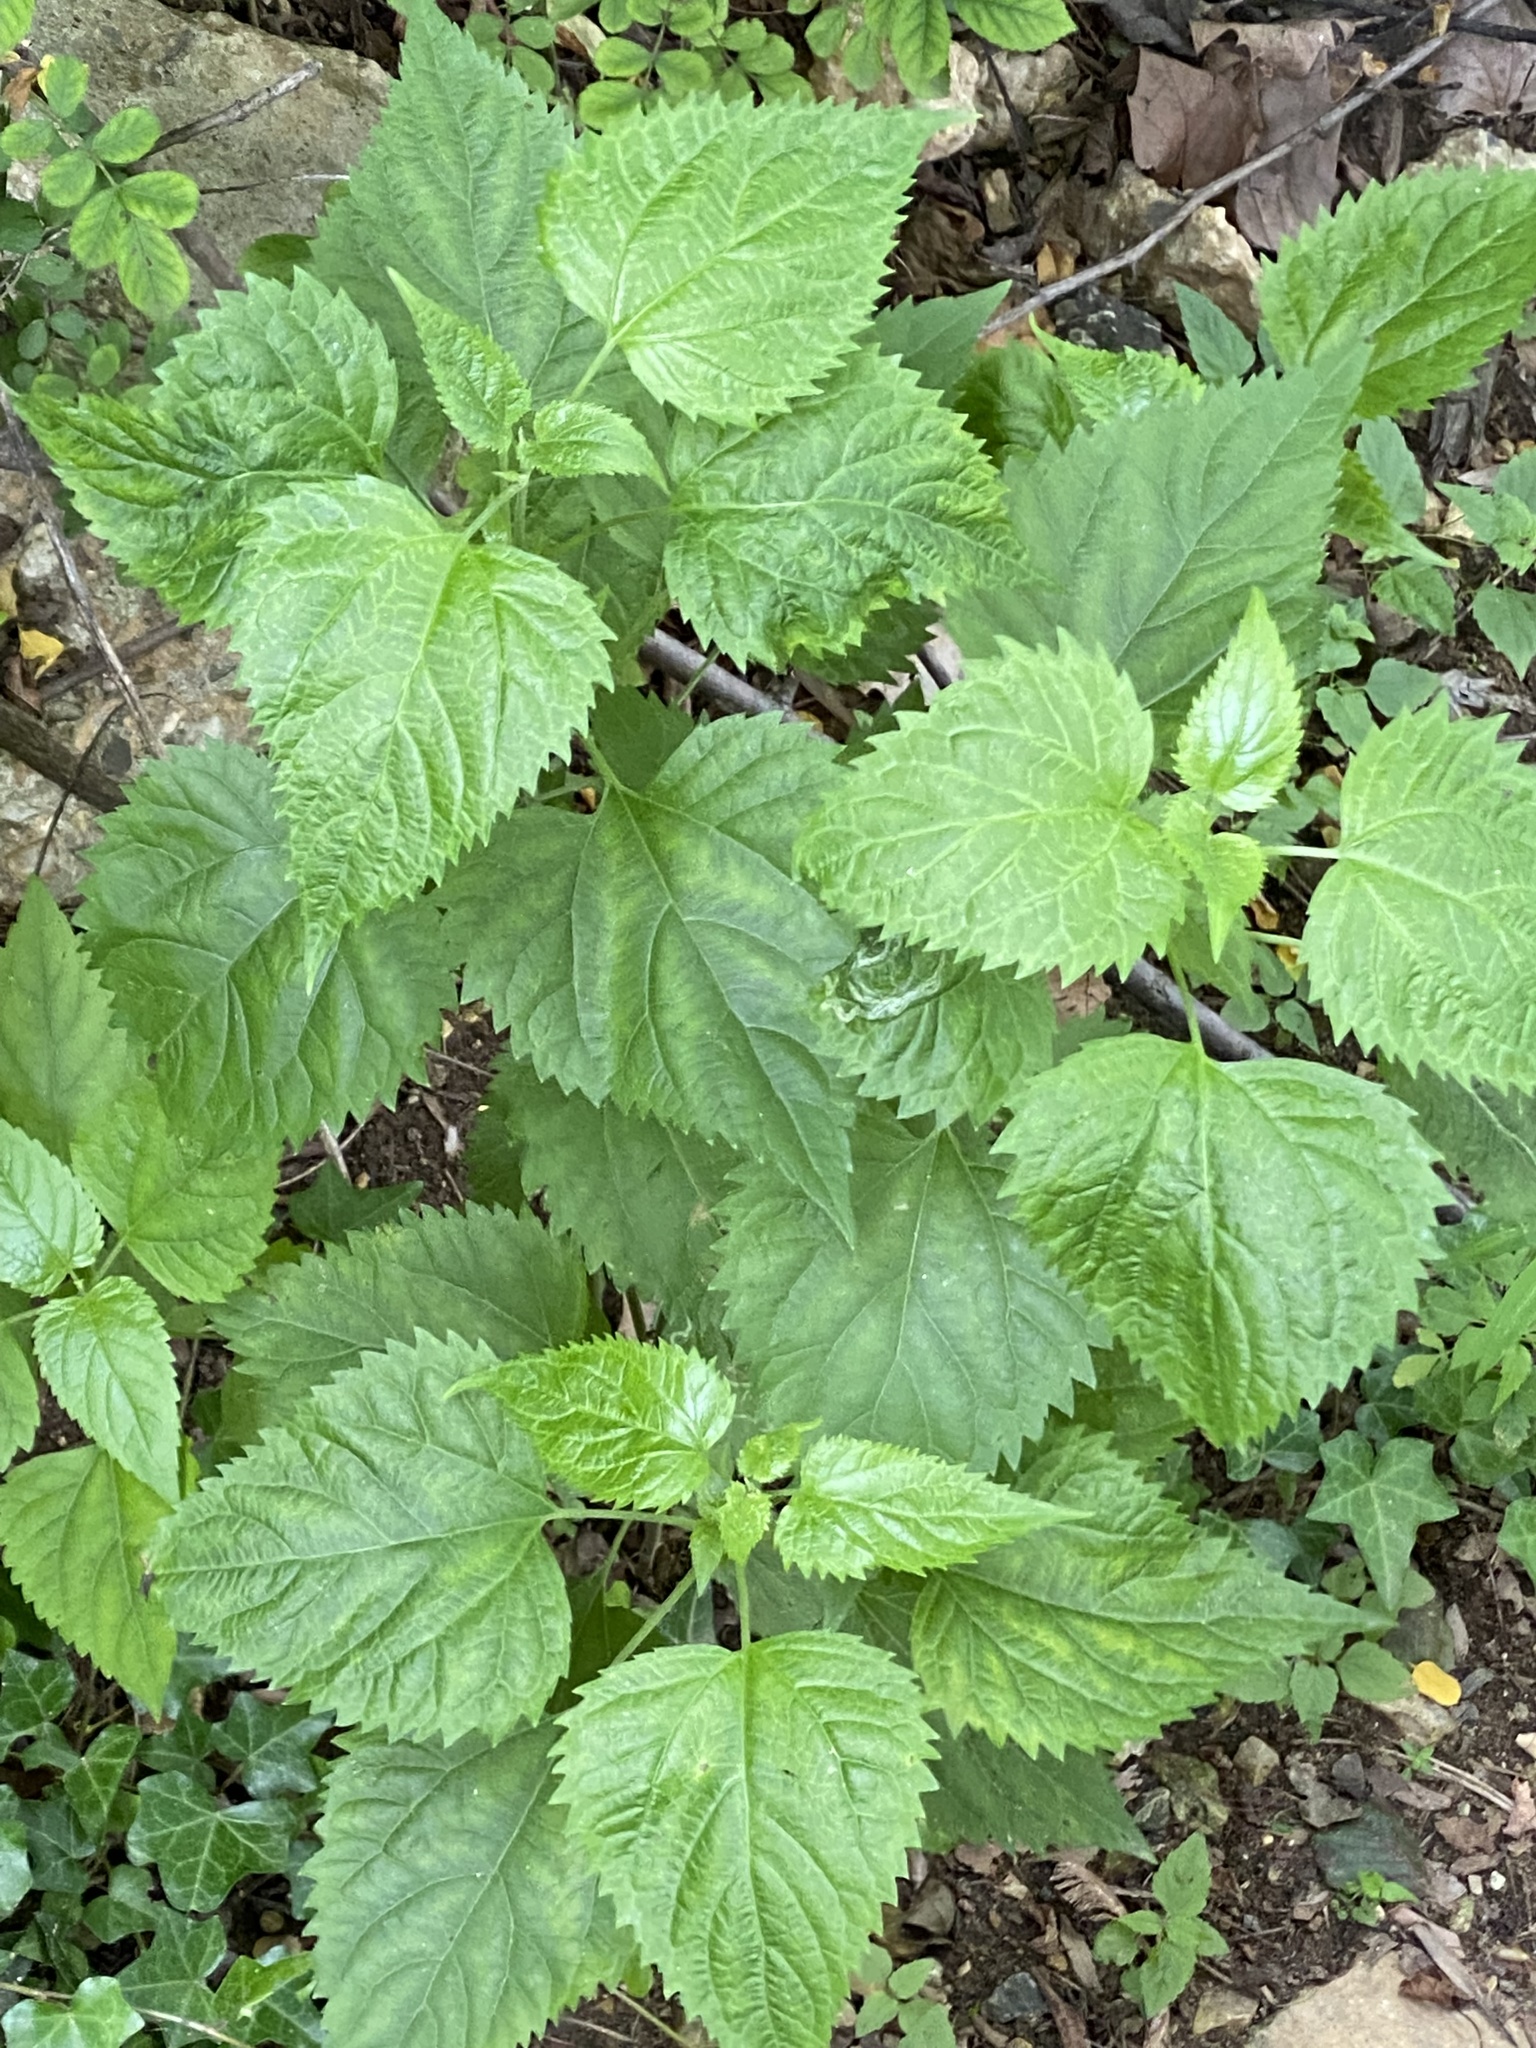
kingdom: Plantae
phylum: Tracheophyta
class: Magnoliopsida
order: Rosales
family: Urticaceae
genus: Urtica
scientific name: Urtica dioica
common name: Common nettle
